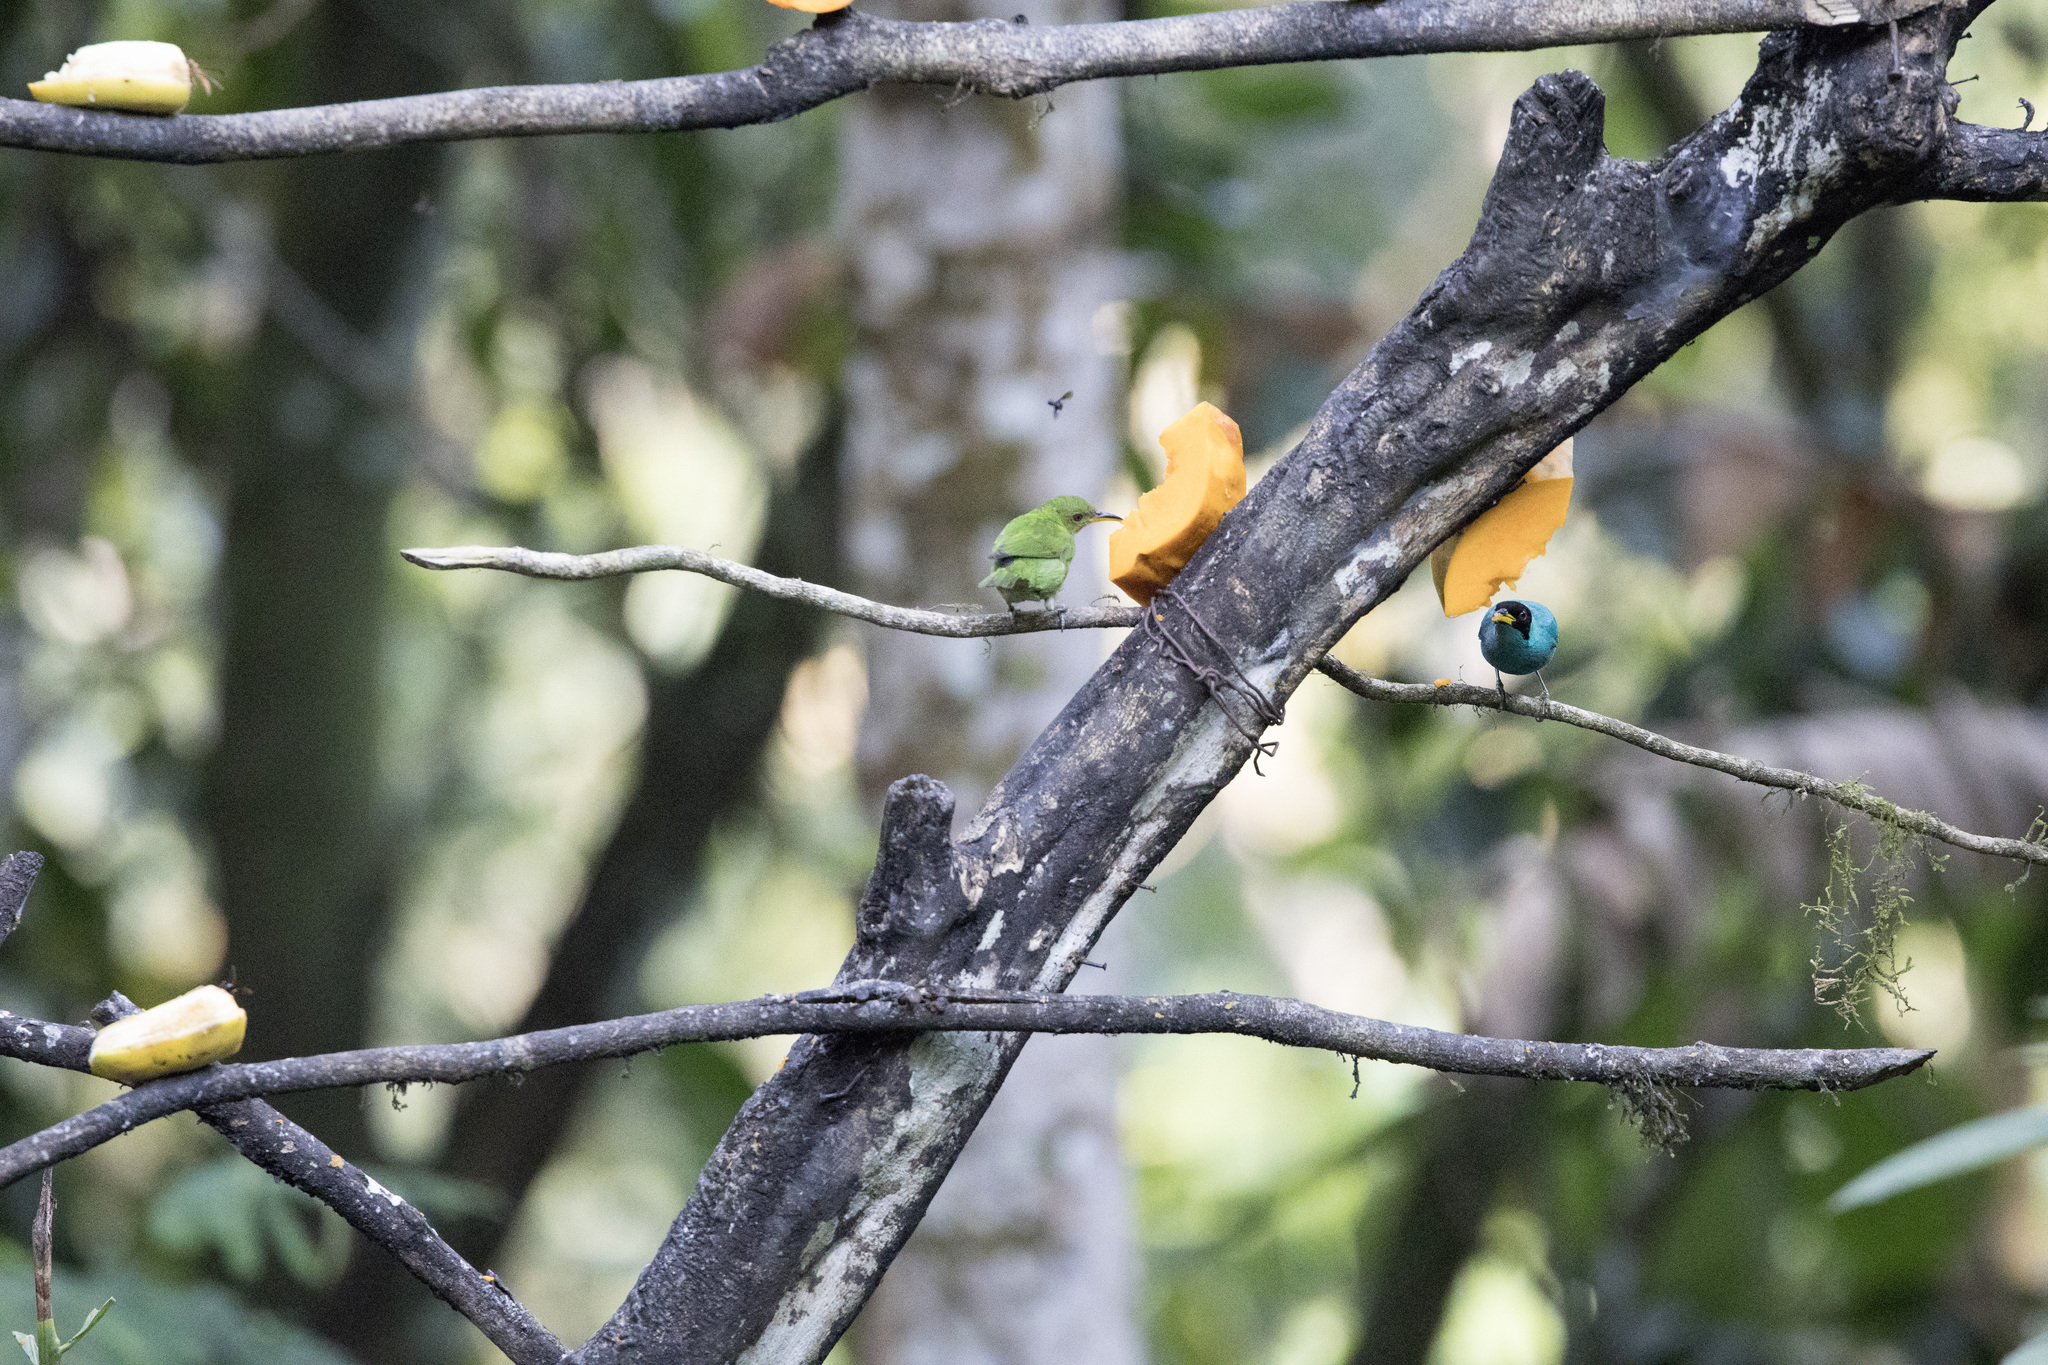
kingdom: Animalia
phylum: Chordata
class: Aves
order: Passeriformes
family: Thraupidae
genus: Chlorophanes
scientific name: Chlorophanes spiza
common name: Green honeycreeper
